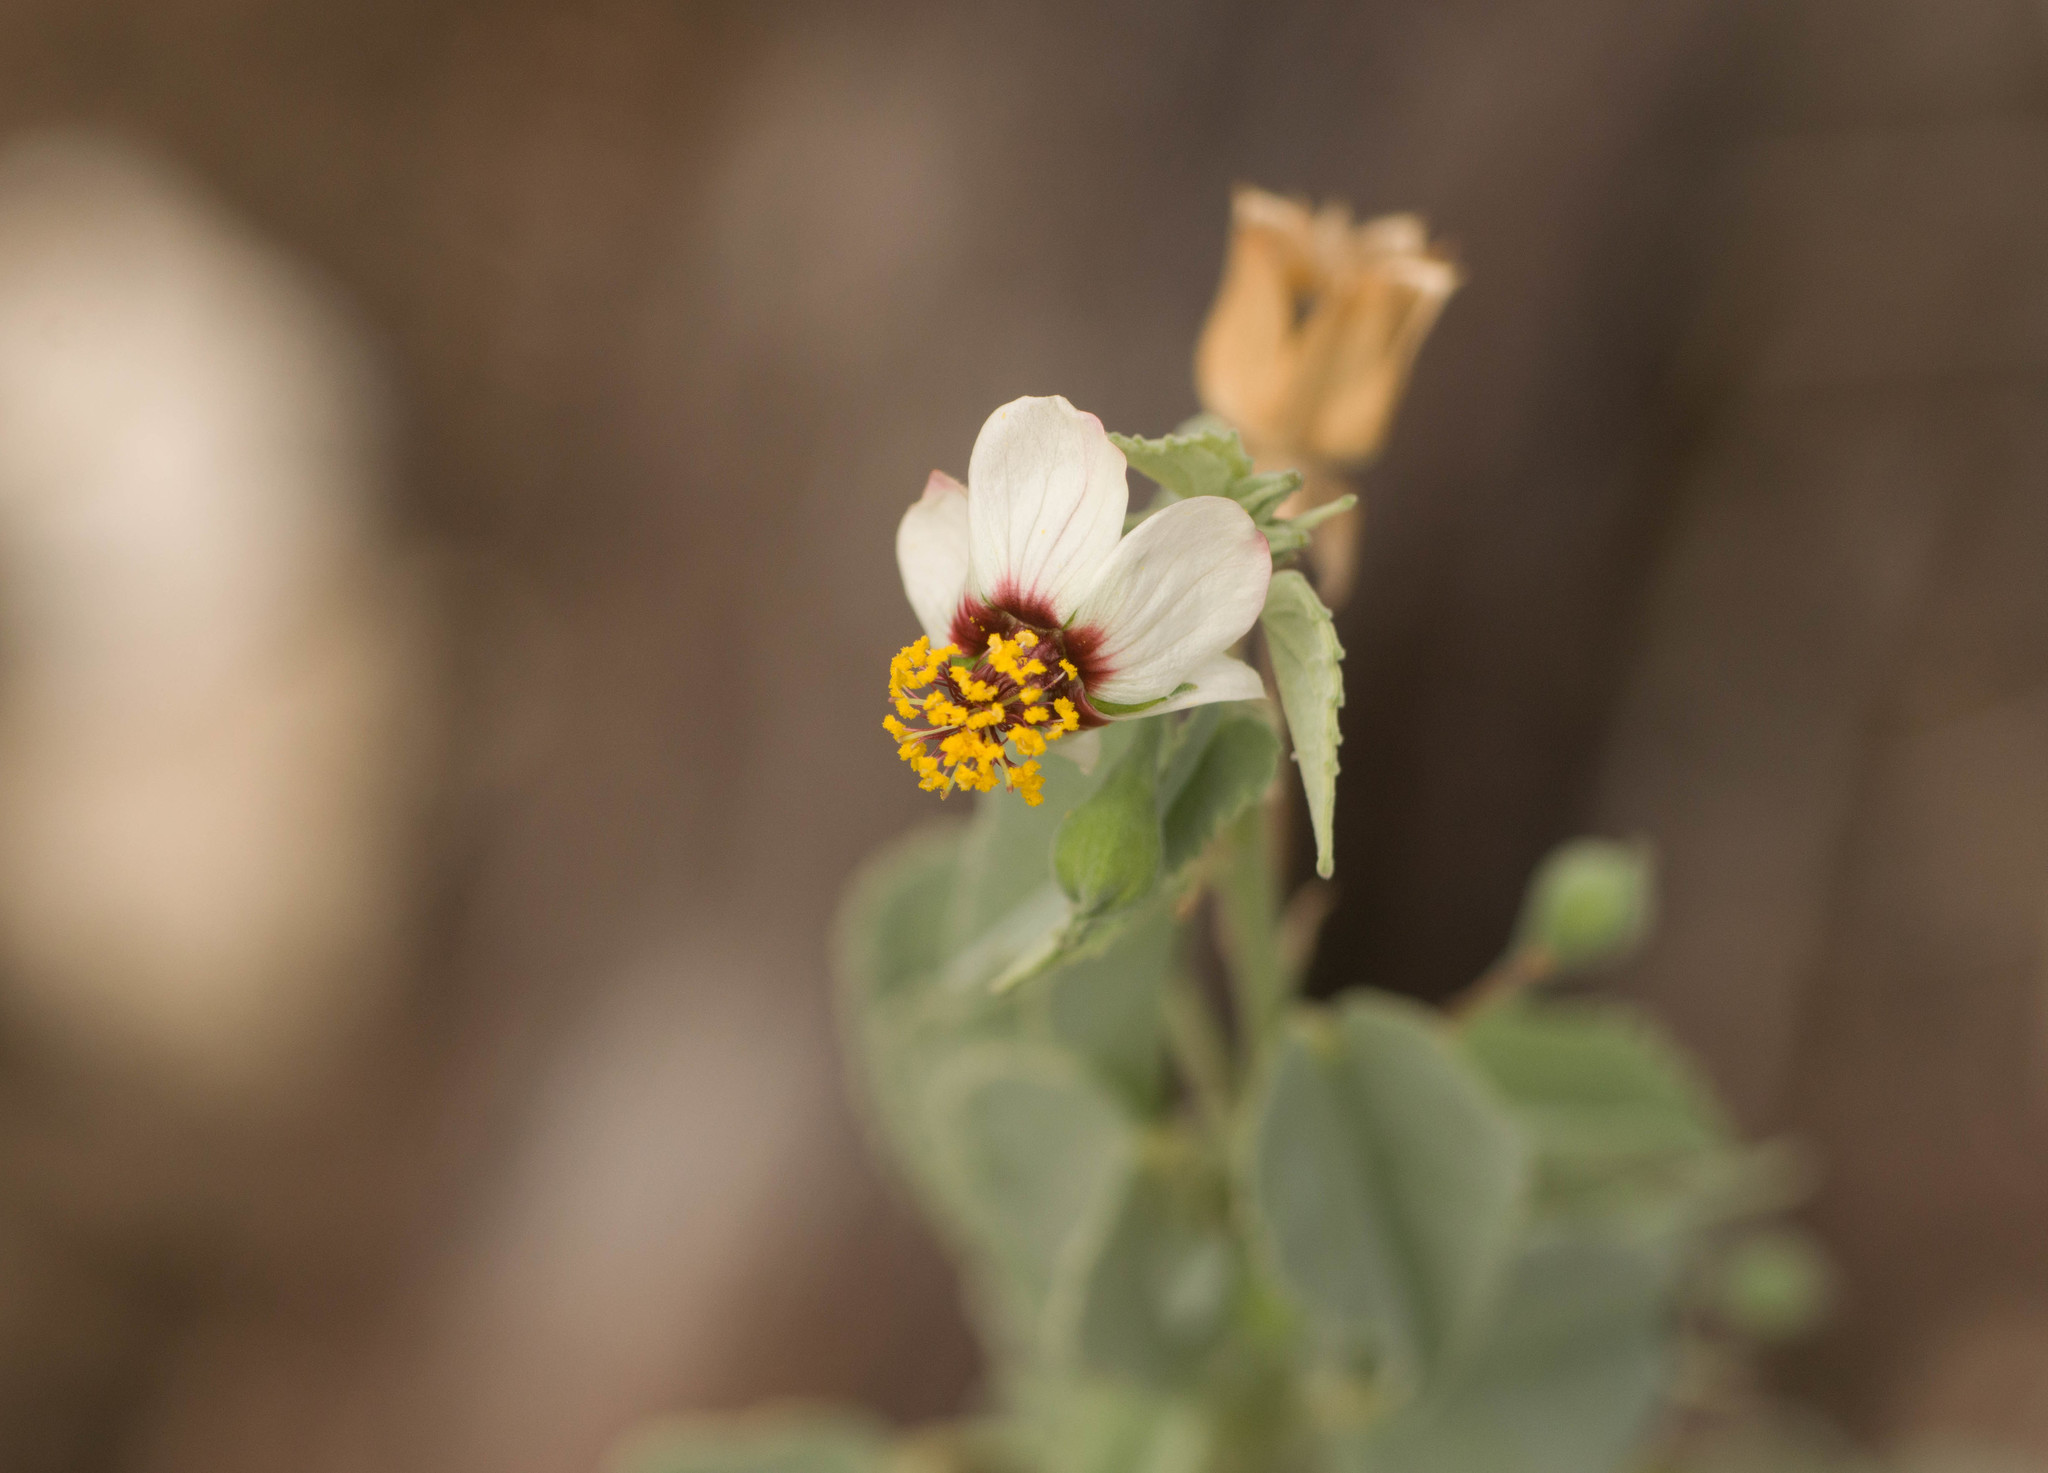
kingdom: Plantae
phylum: Tracheophyta
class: Magnoliopsida
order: Malvales
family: Malvaceae
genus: Abutilon
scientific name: Abutilon incanum
